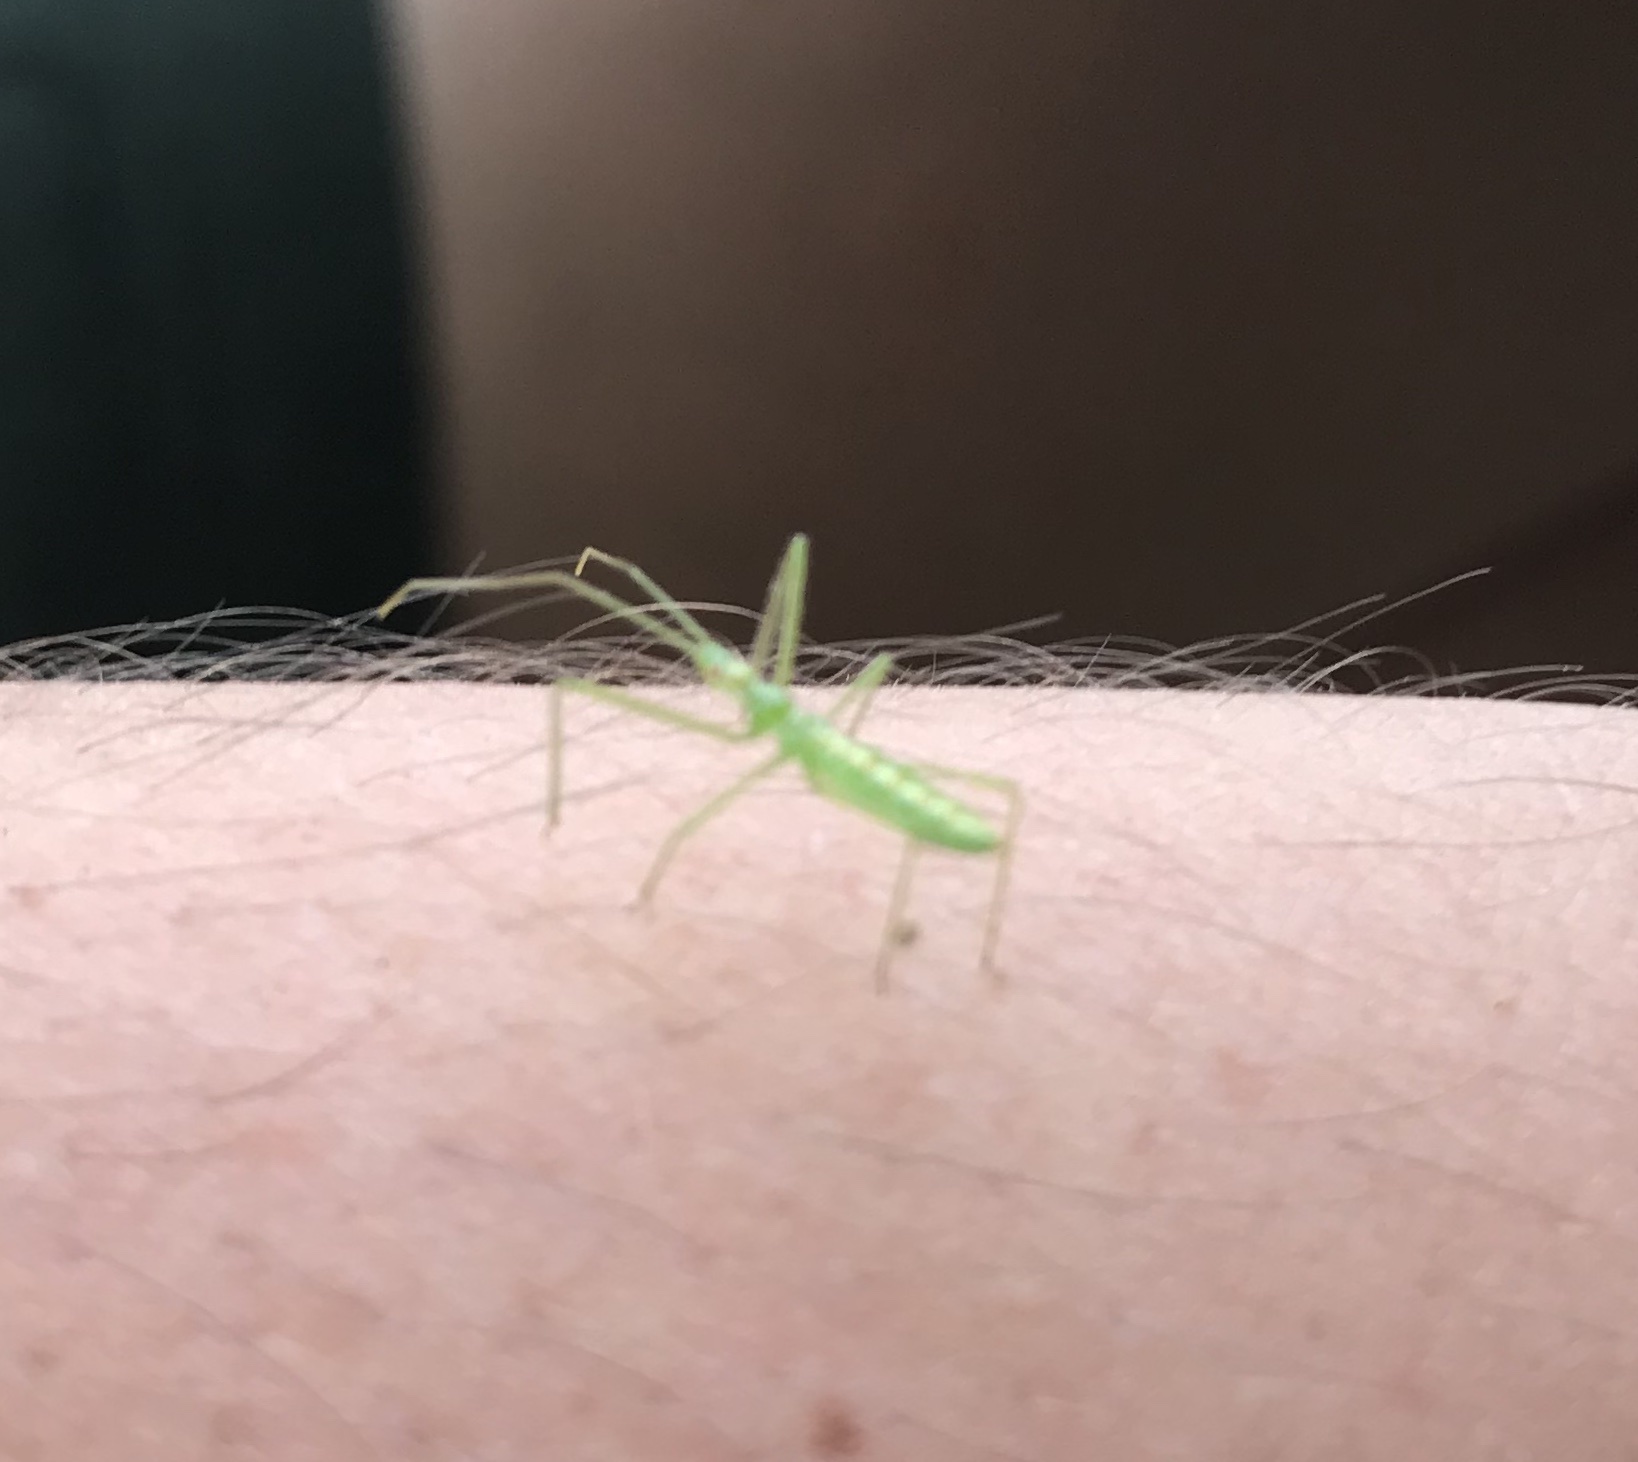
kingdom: Animalia
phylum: Arthropoda
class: Insecta
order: Hemiptera
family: Reduviidae
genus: Zelus
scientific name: Zelus luridus
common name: Pale green assassin bug
